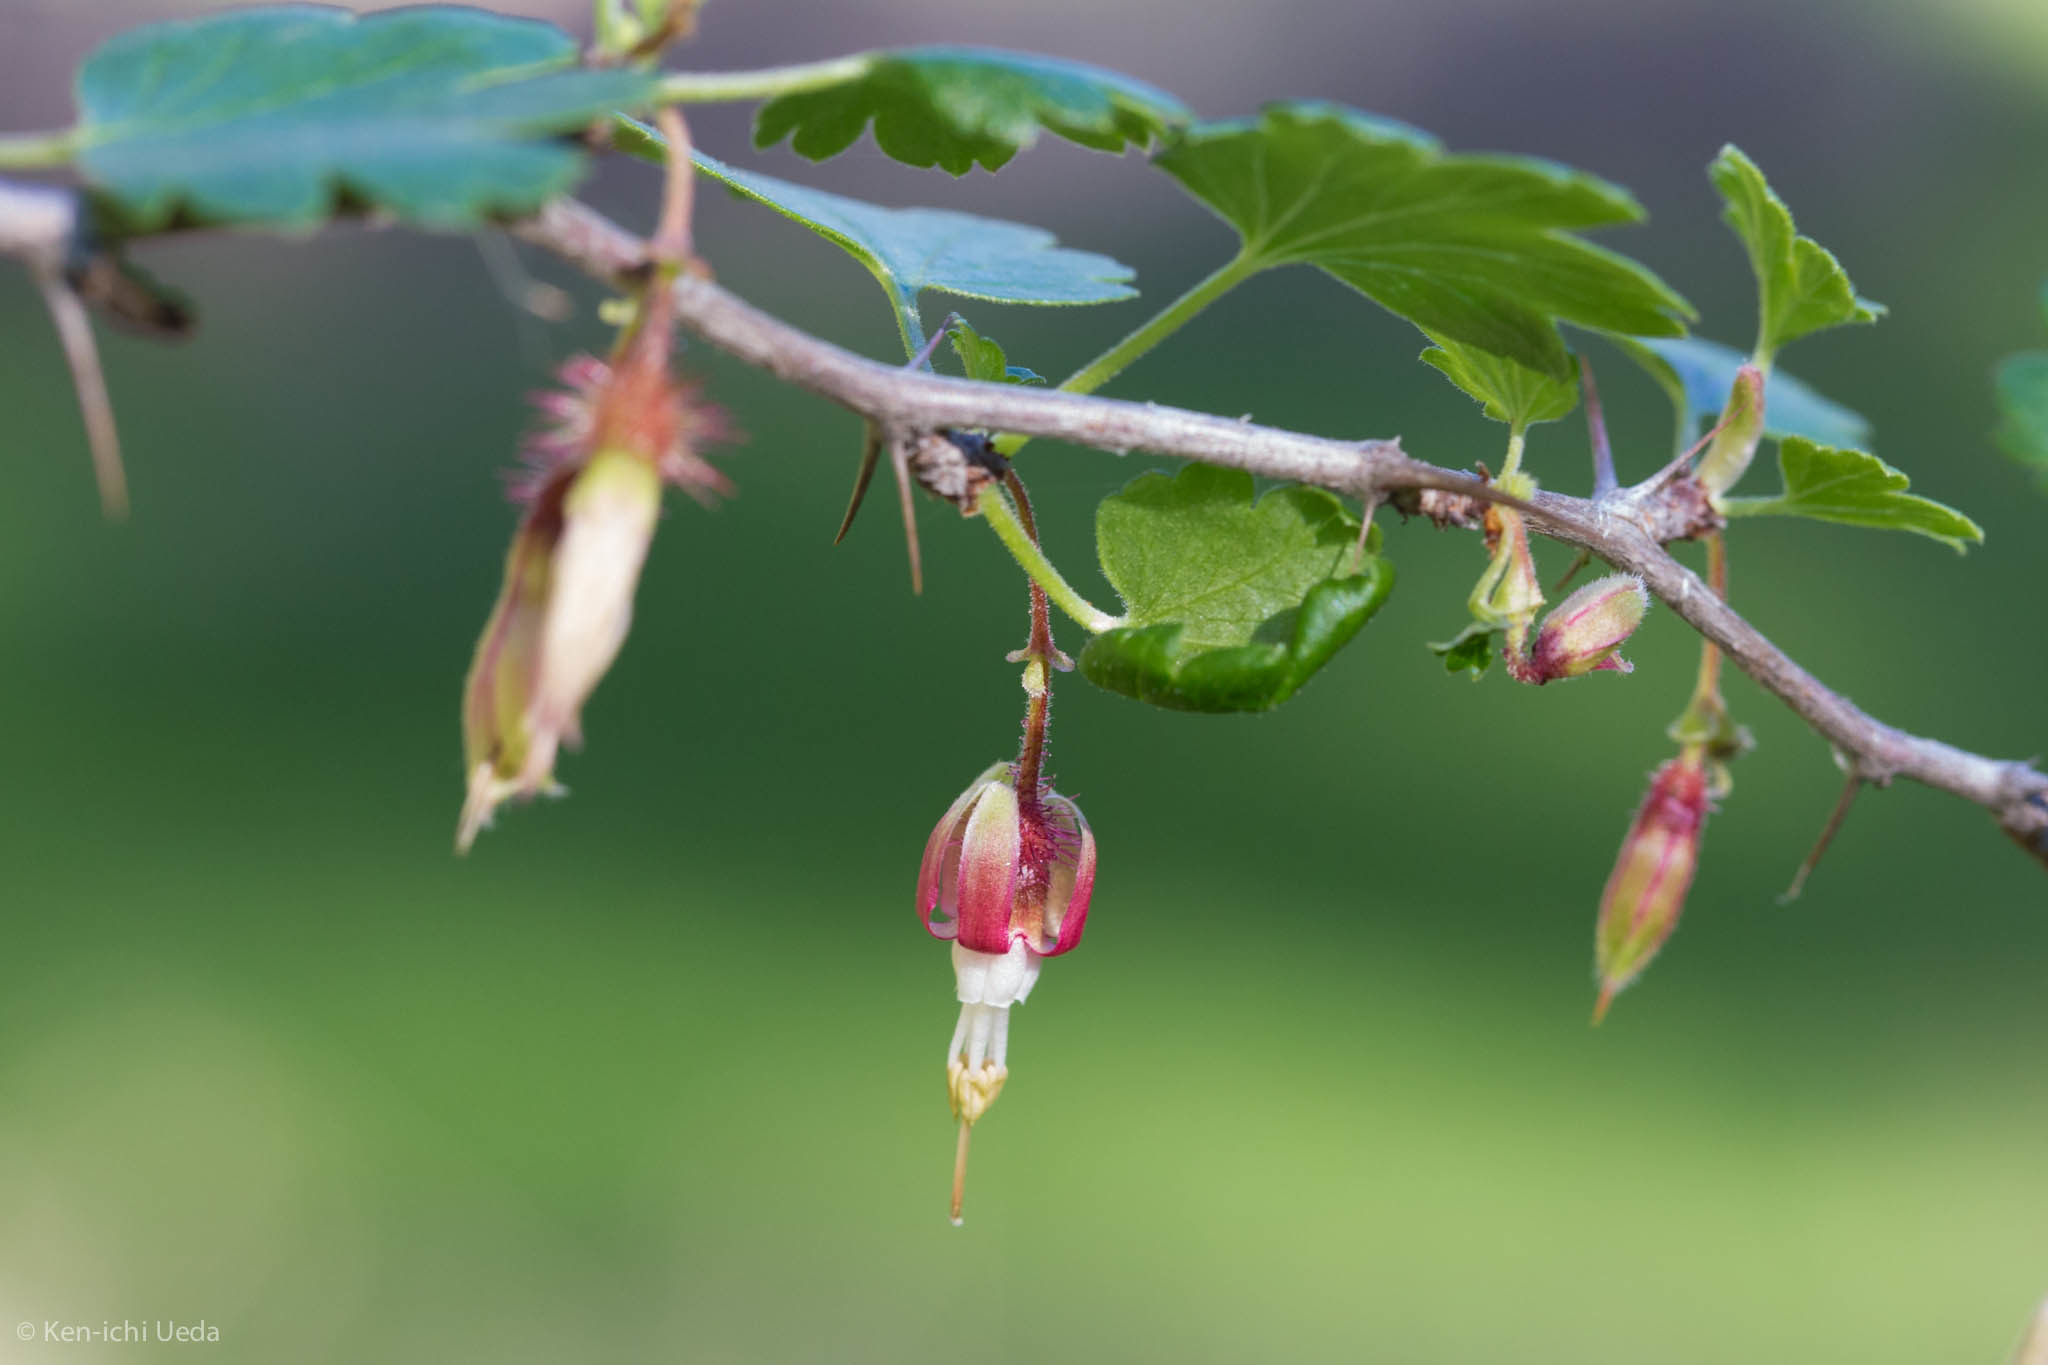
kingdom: Plantae
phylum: Tracheophyta
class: Magnoliopsida
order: Saxifragales
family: Grossulariaceae
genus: Ribes
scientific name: Ribes californicum
